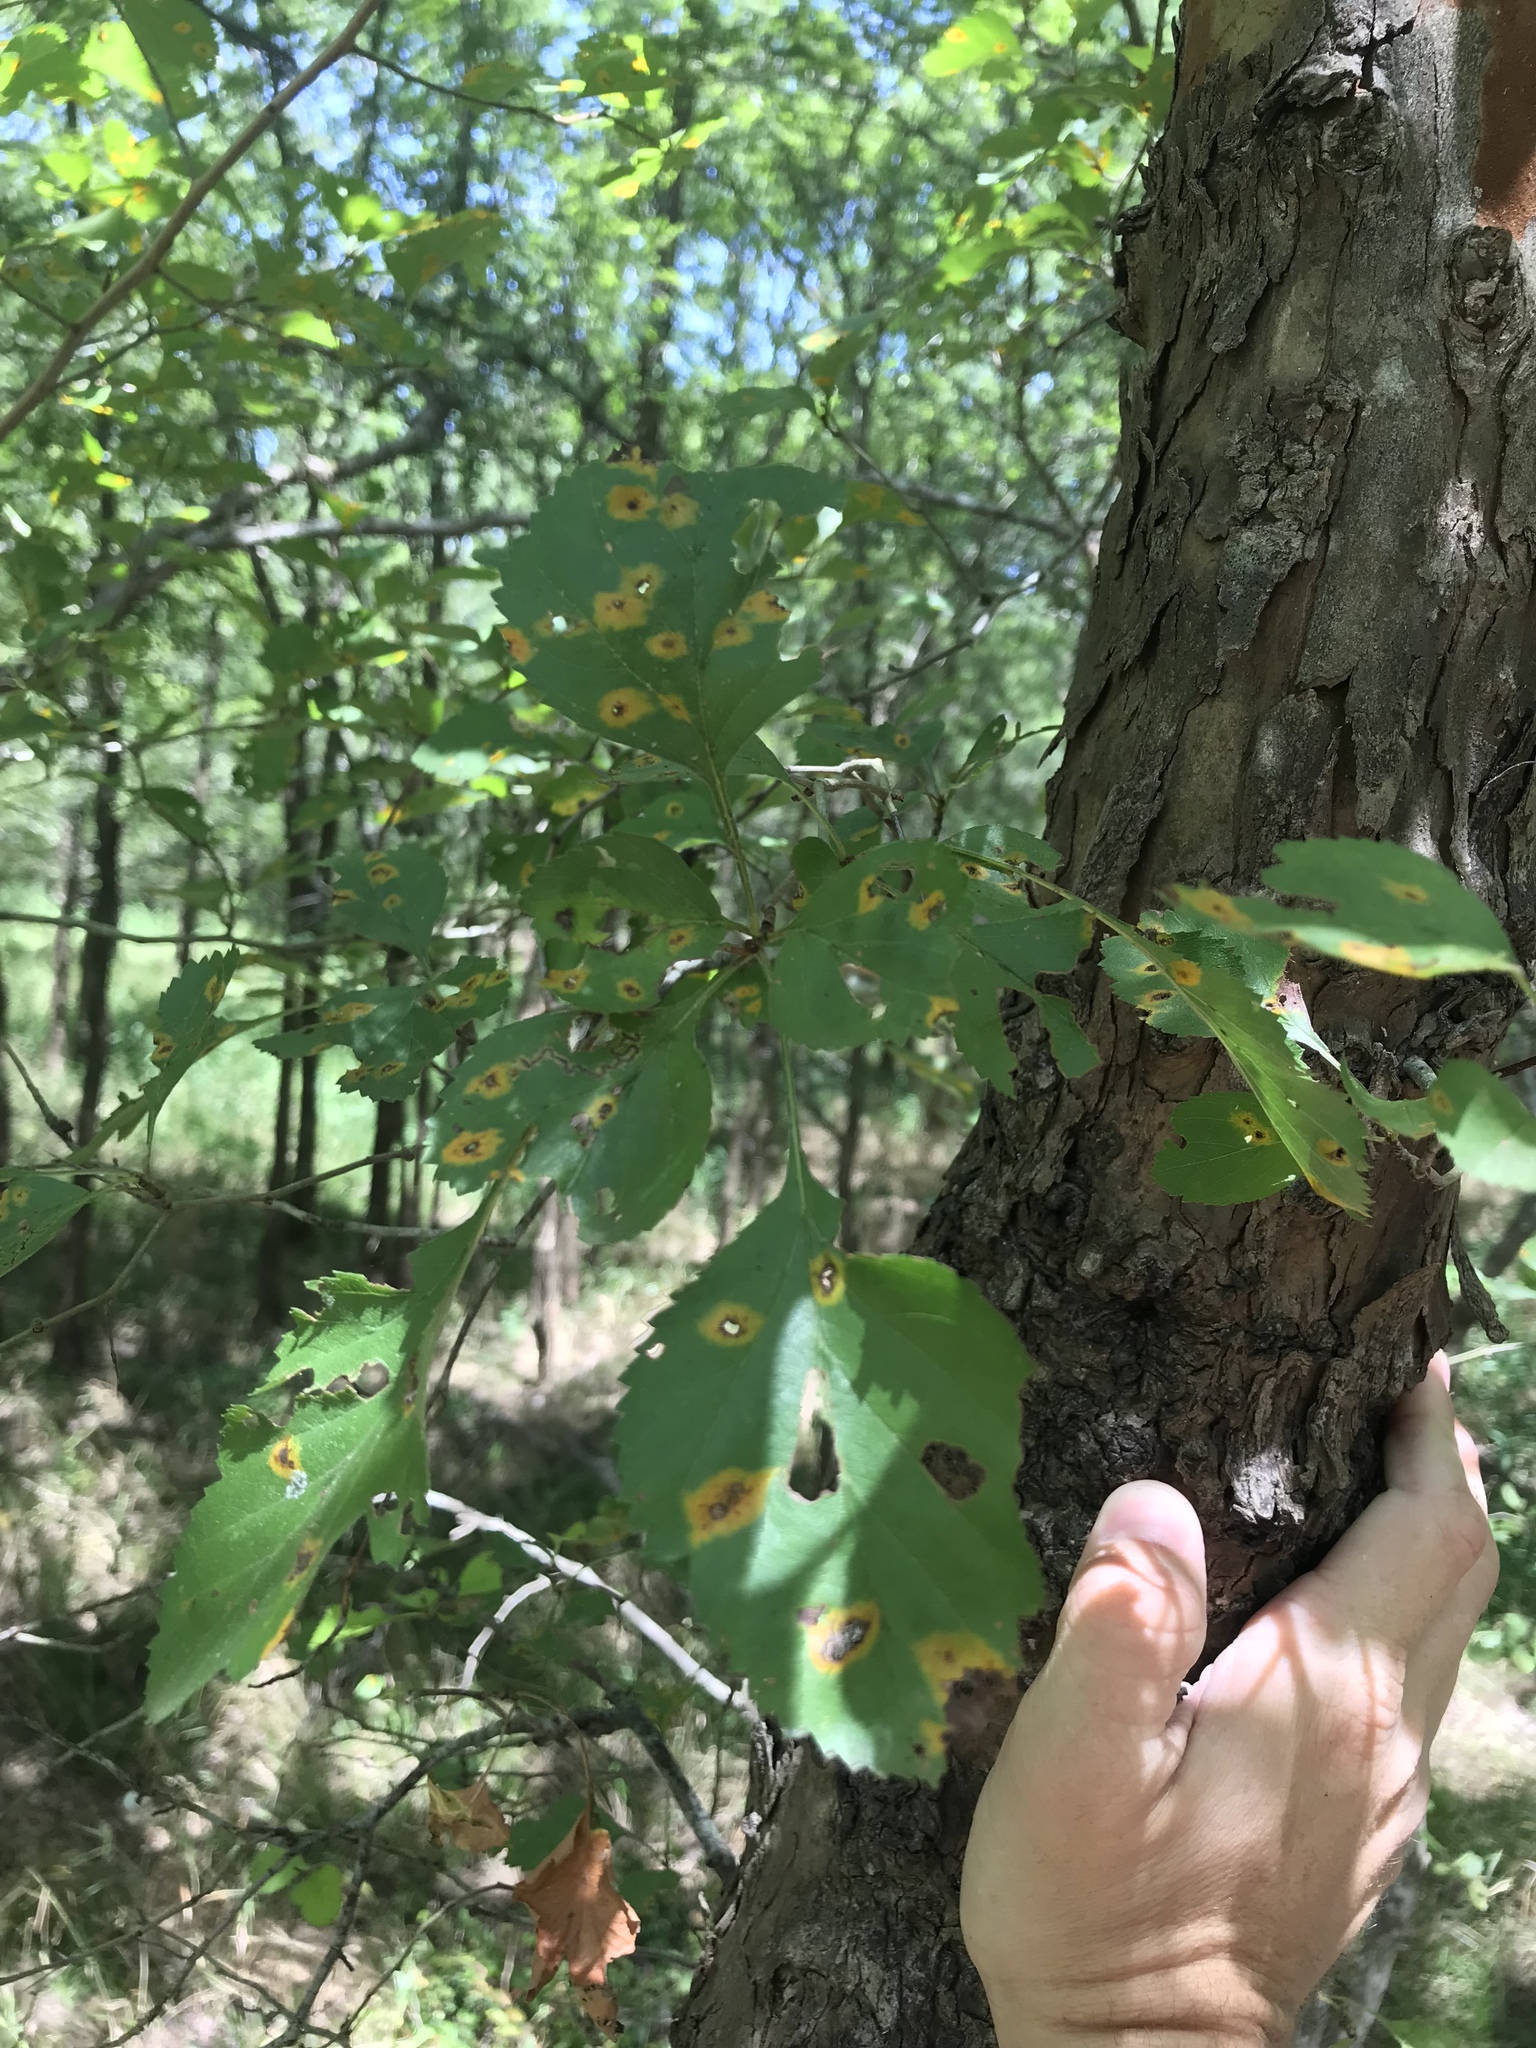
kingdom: Plantae
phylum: Tracheophyta
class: Magnoliopsida
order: Rosales
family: Rosaceae
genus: Crataegus
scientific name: Crataegus viridis
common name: Southernthorn
